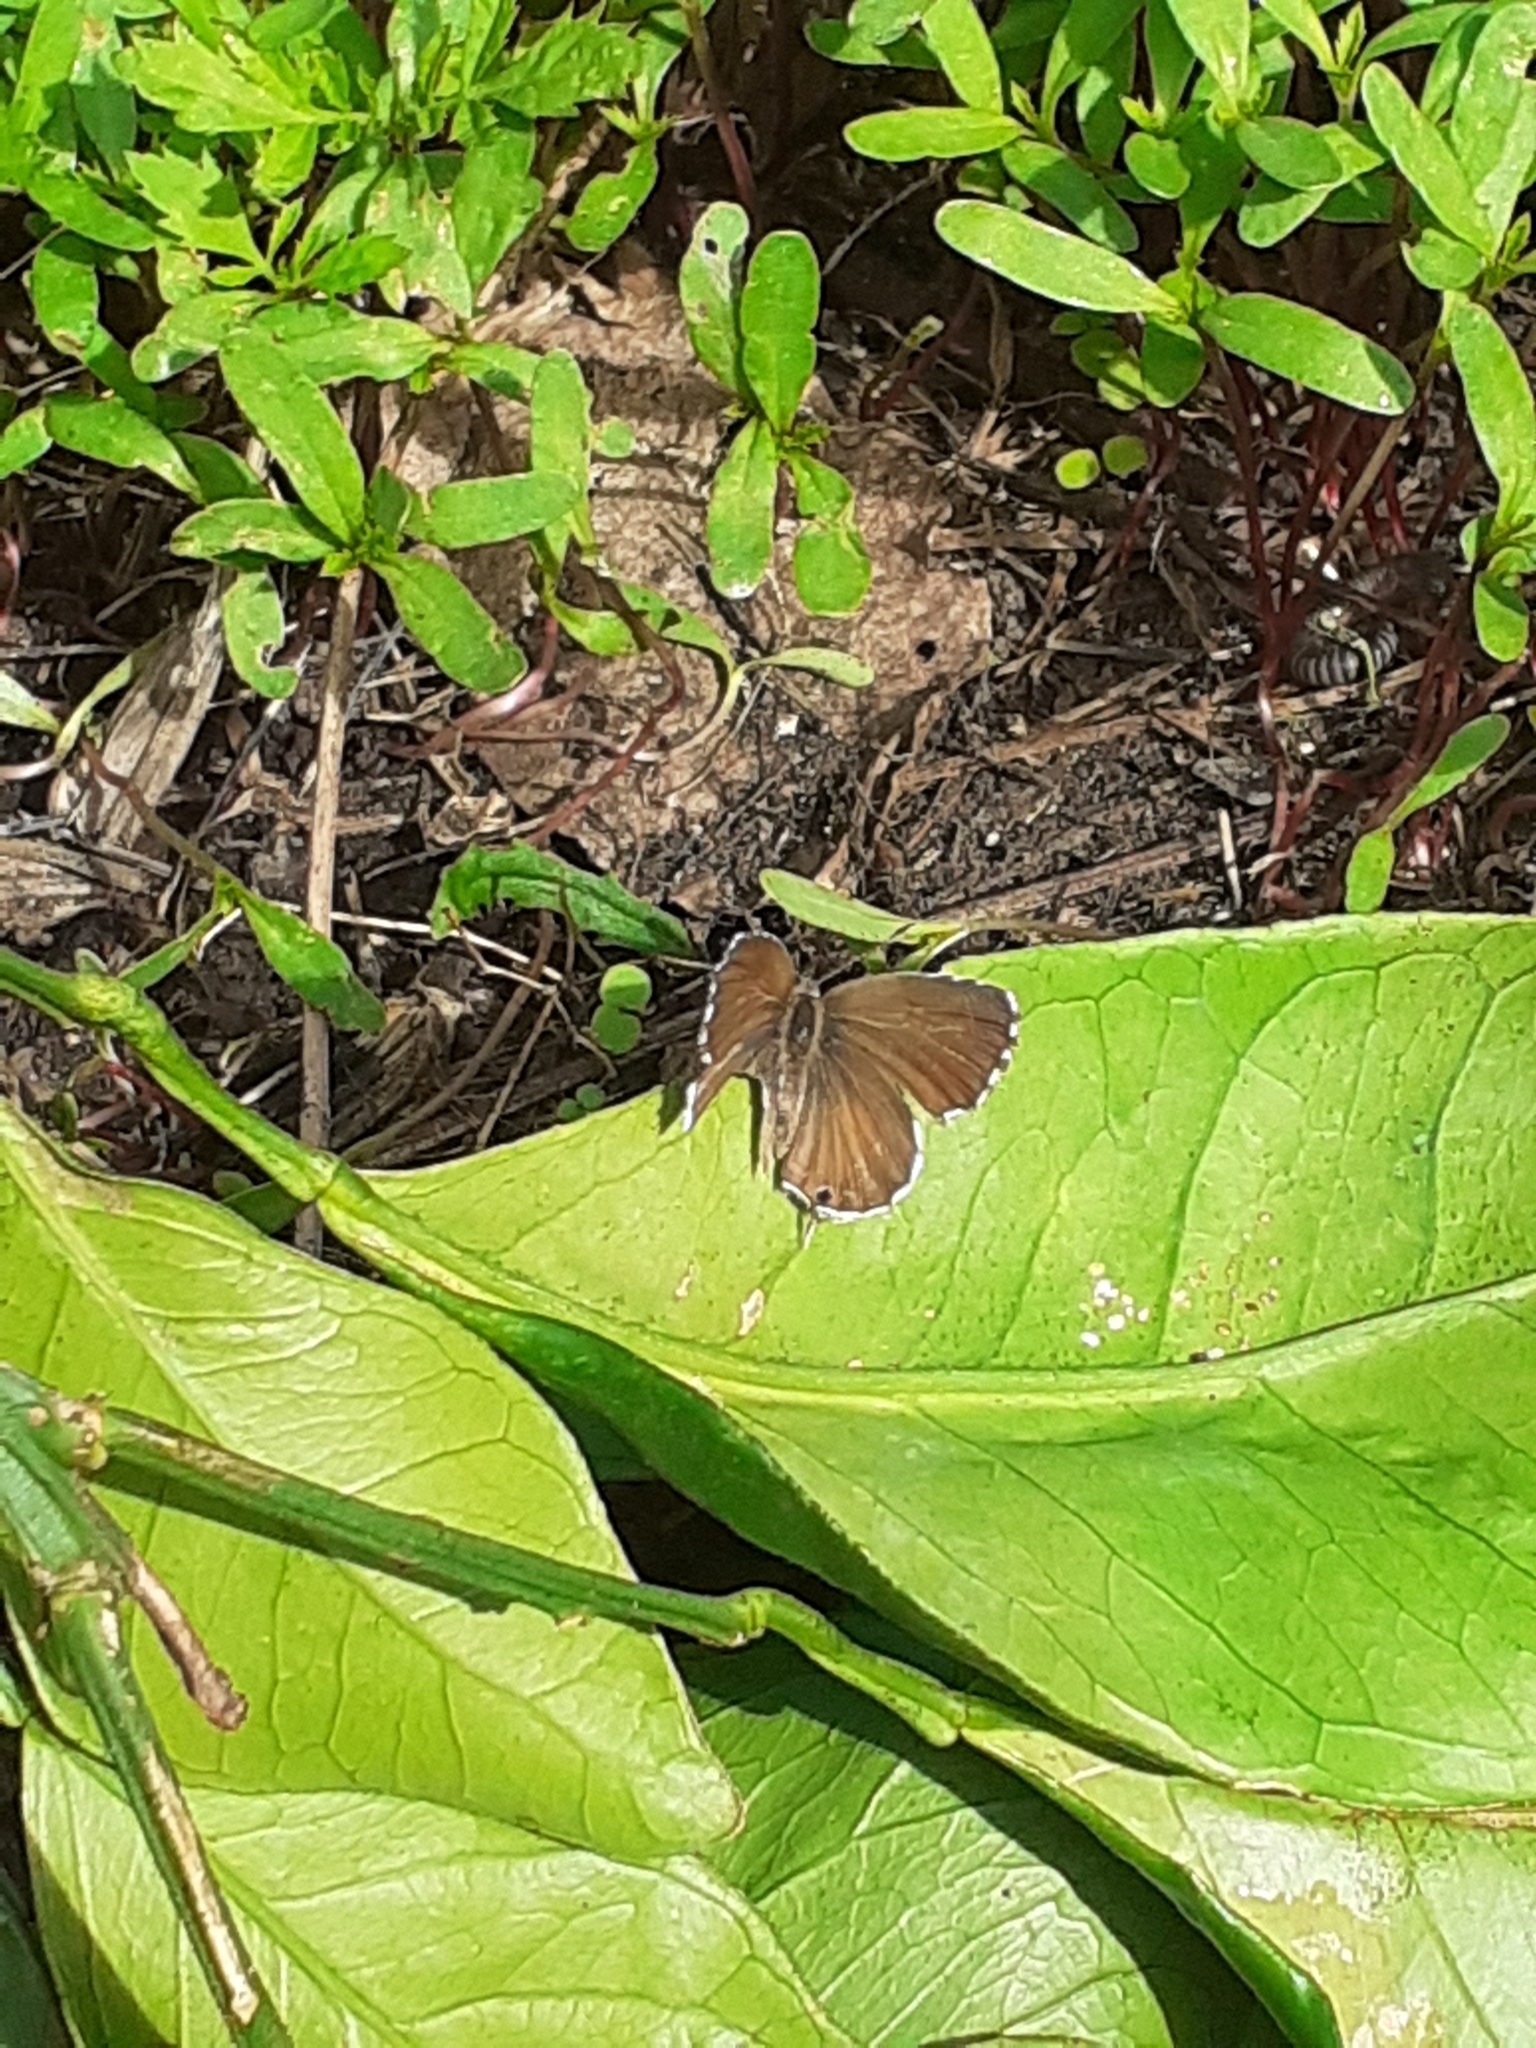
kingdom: Animalia
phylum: Arthropoda
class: Insecta
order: Lepidoptera
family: Lycaenidae
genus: Cacyreus
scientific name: Cacyreus marshalli
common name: Geranium bronze
